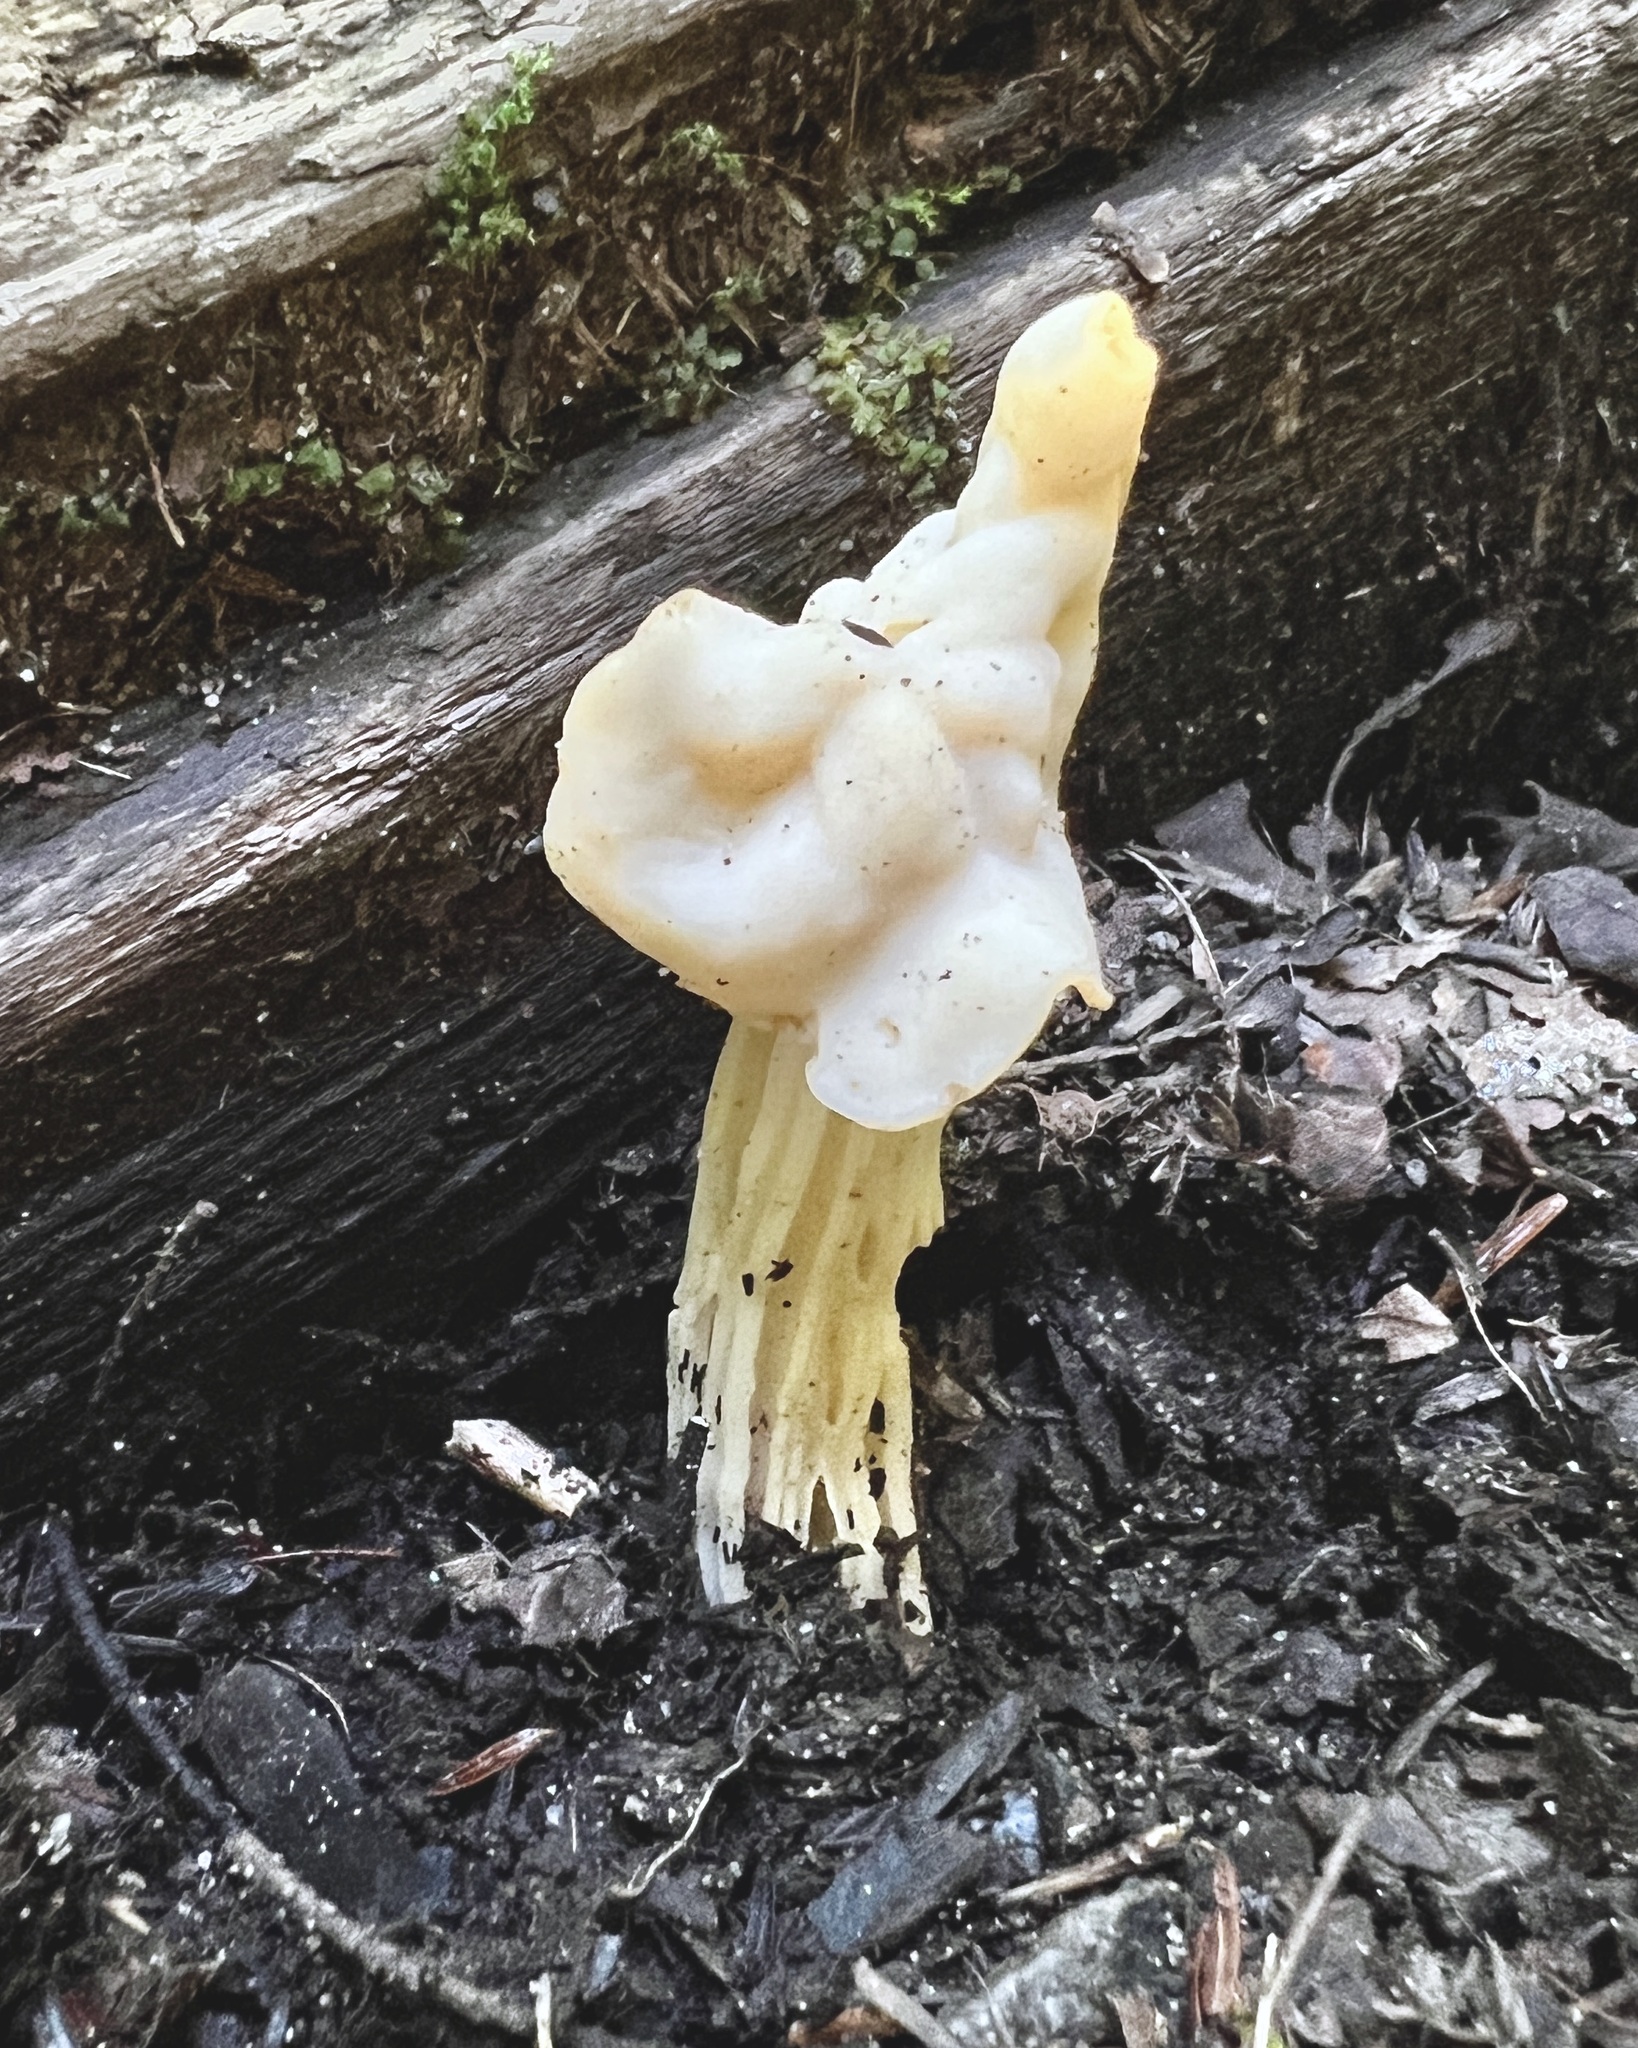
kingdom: Fungi
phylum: Ascomycota
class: Pezizomycetes
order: Pezizales
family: Helvellaceae
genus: Helvella
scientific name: Helvella crispa
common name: White saddle
